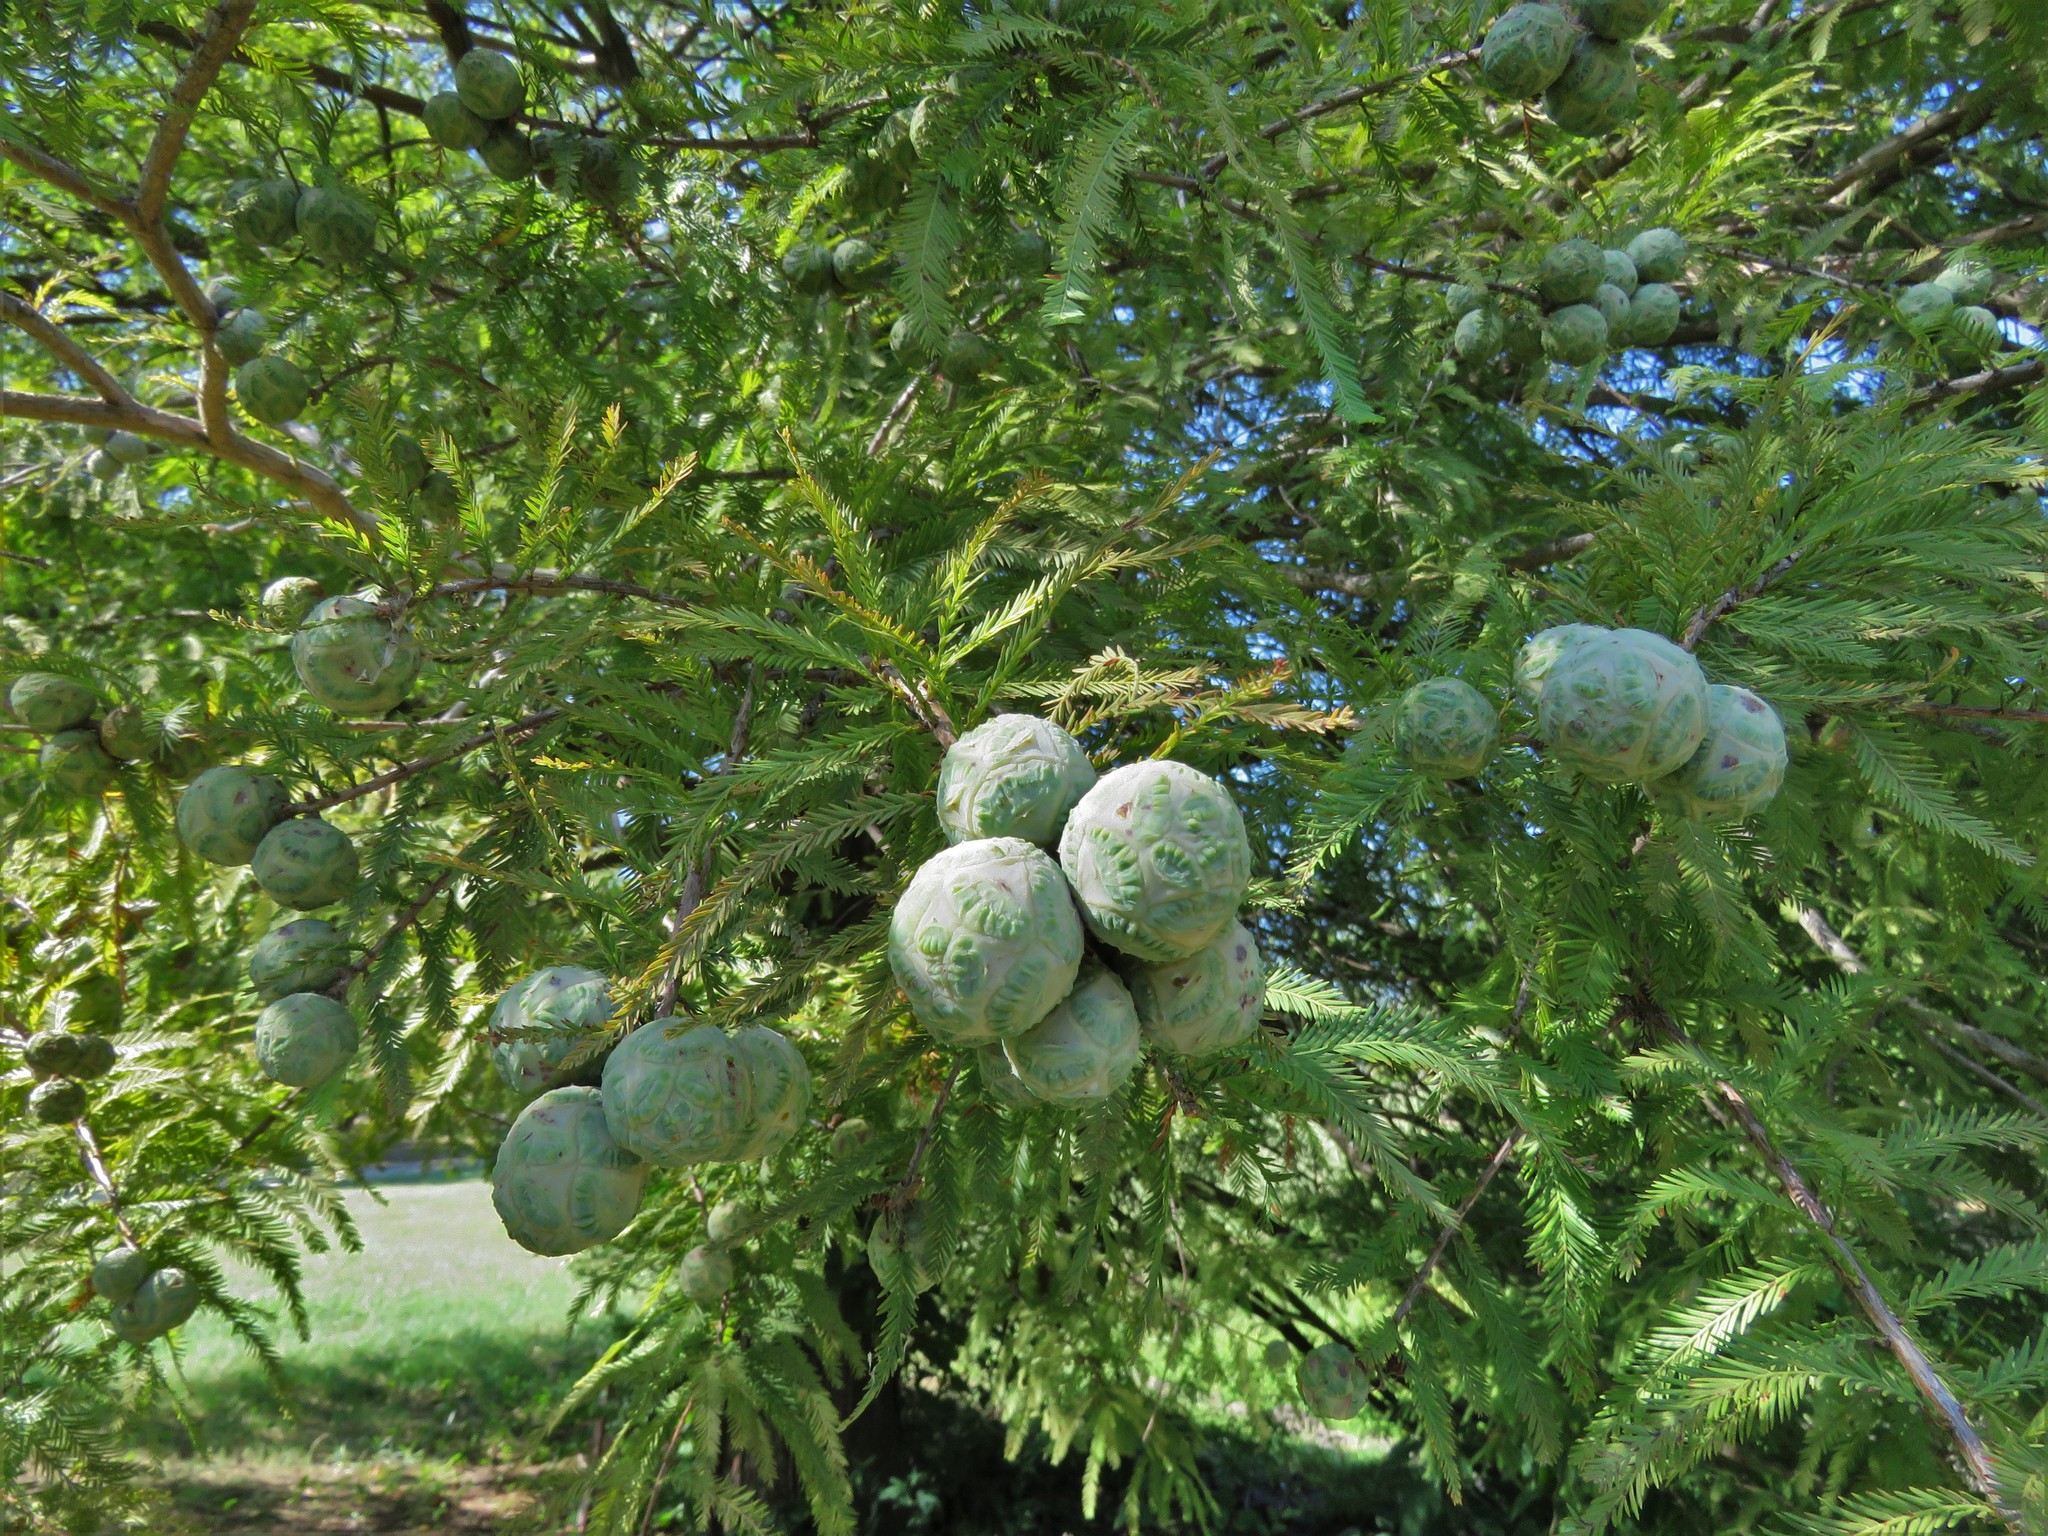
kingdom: Plantae
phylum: Tracheophyta
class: Pinopsida
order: Pinales
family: Cupressaceae
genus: Taxodium
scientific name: Taxodium distichum
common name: Bald cypress
